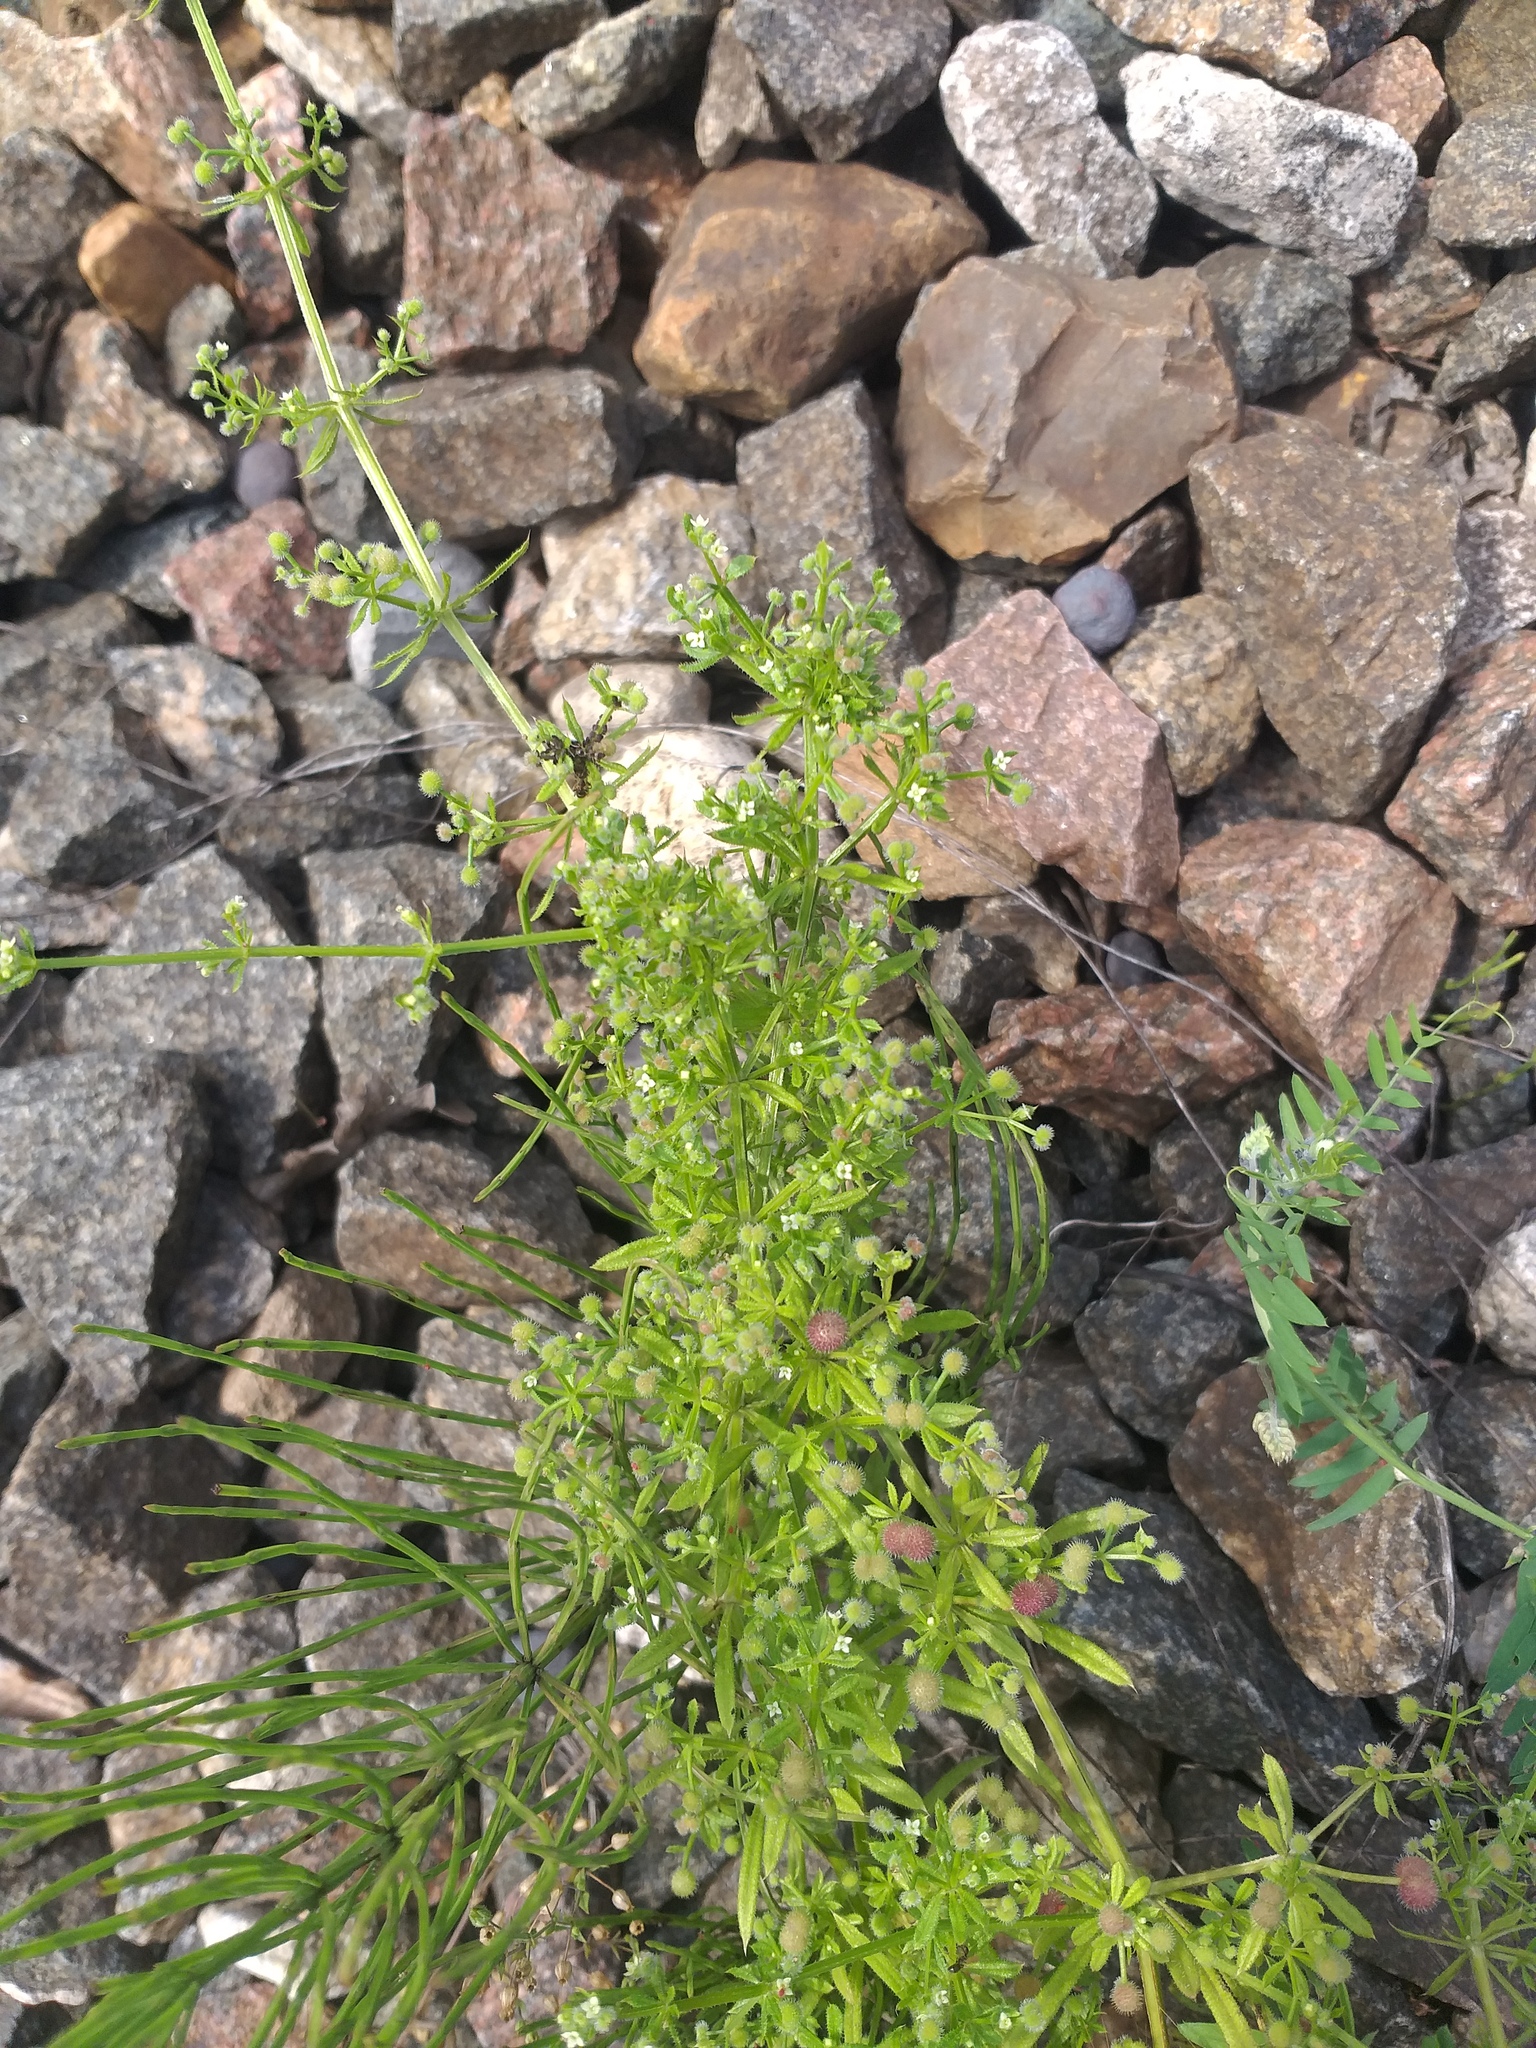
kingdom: Plantae
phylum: Tracheophyta
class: Magnoliopsida
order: Gentianales
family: Rubiaceae
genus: Galium
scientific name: Galium aparine
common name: Cleavers
